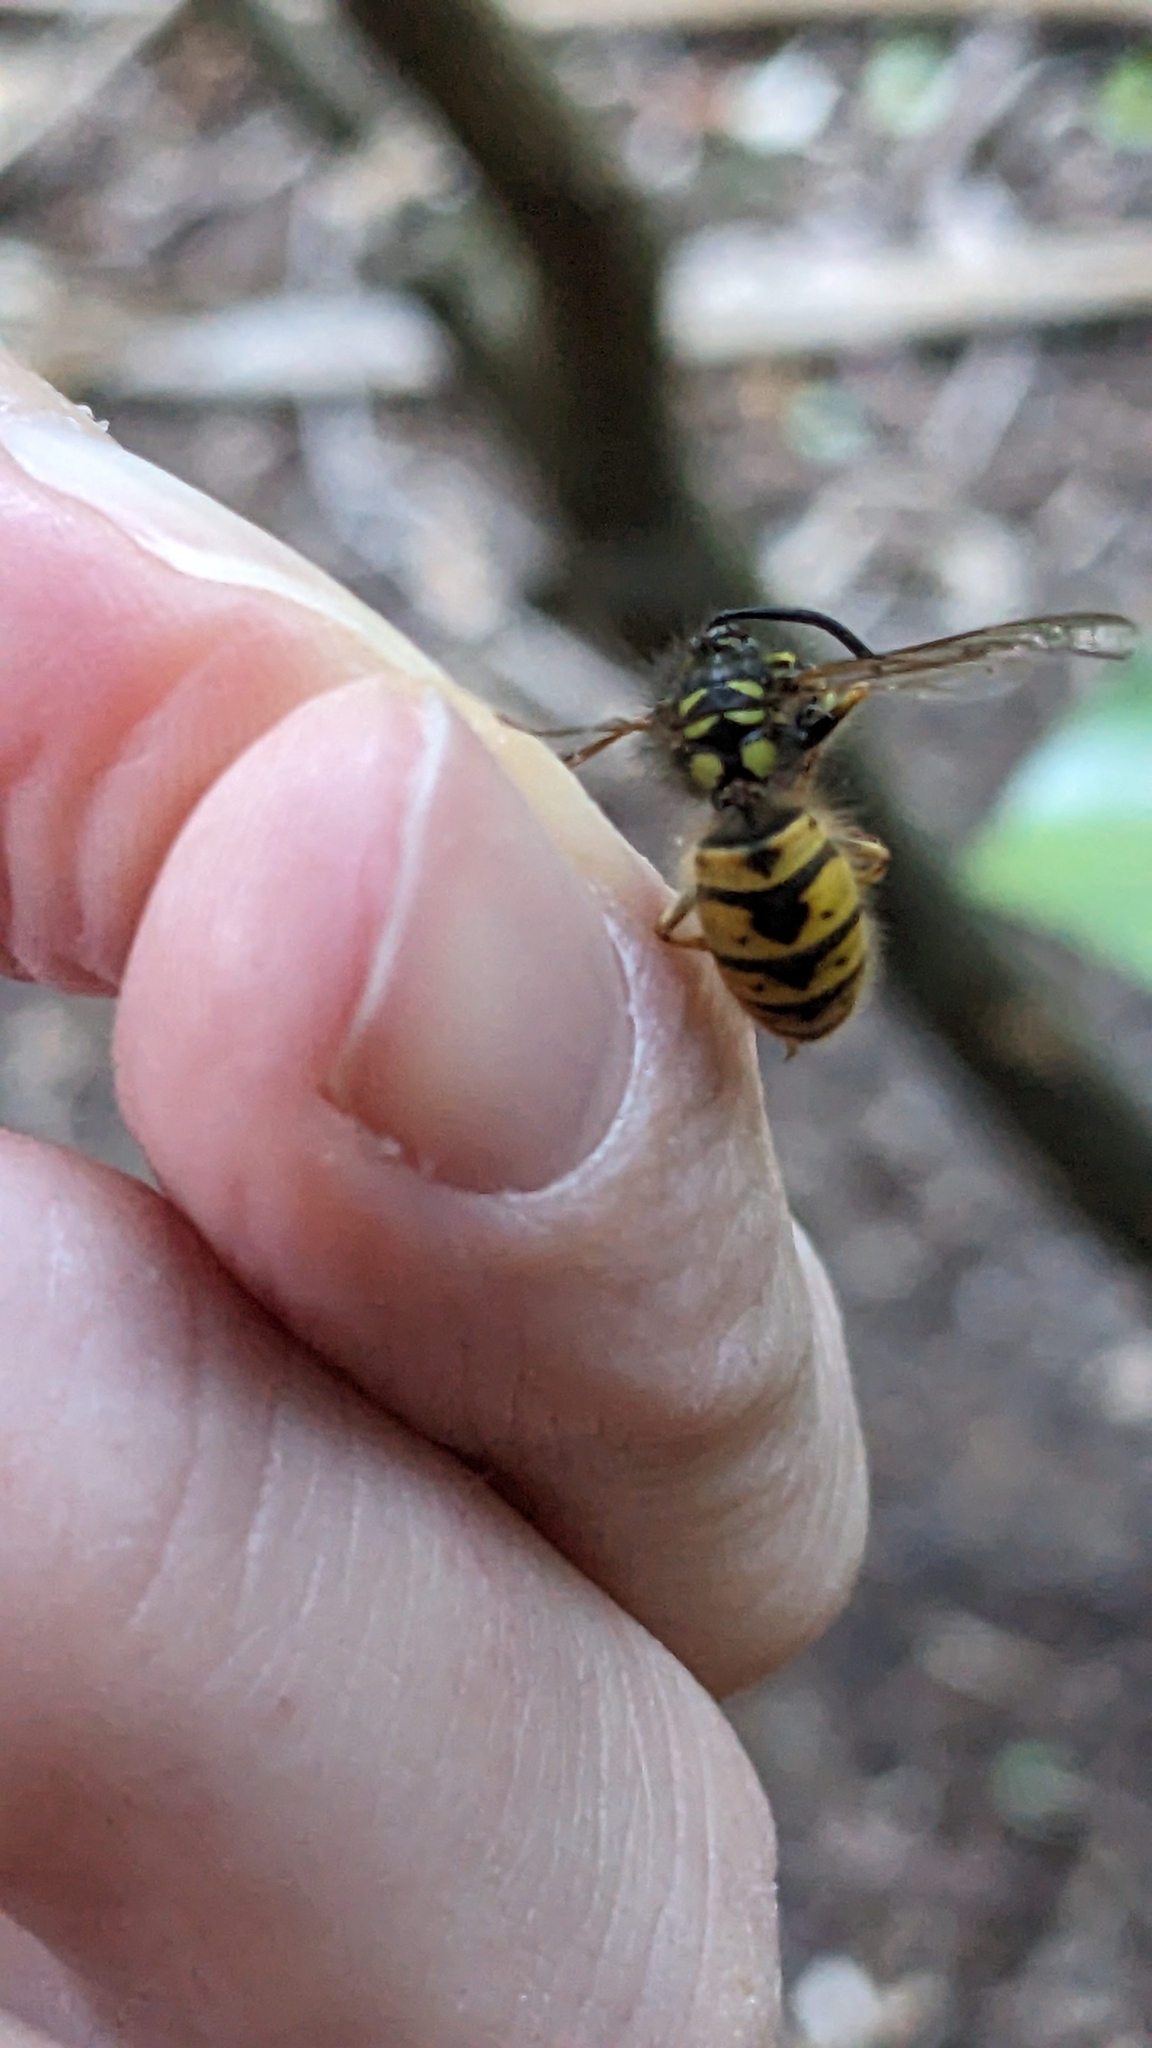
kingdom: Animalia
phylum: Arthropoda
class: Insecta
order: Hymenoptera
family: Vespidae
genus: Vespula
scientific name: Vespula vulgaris
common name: Common wasp
